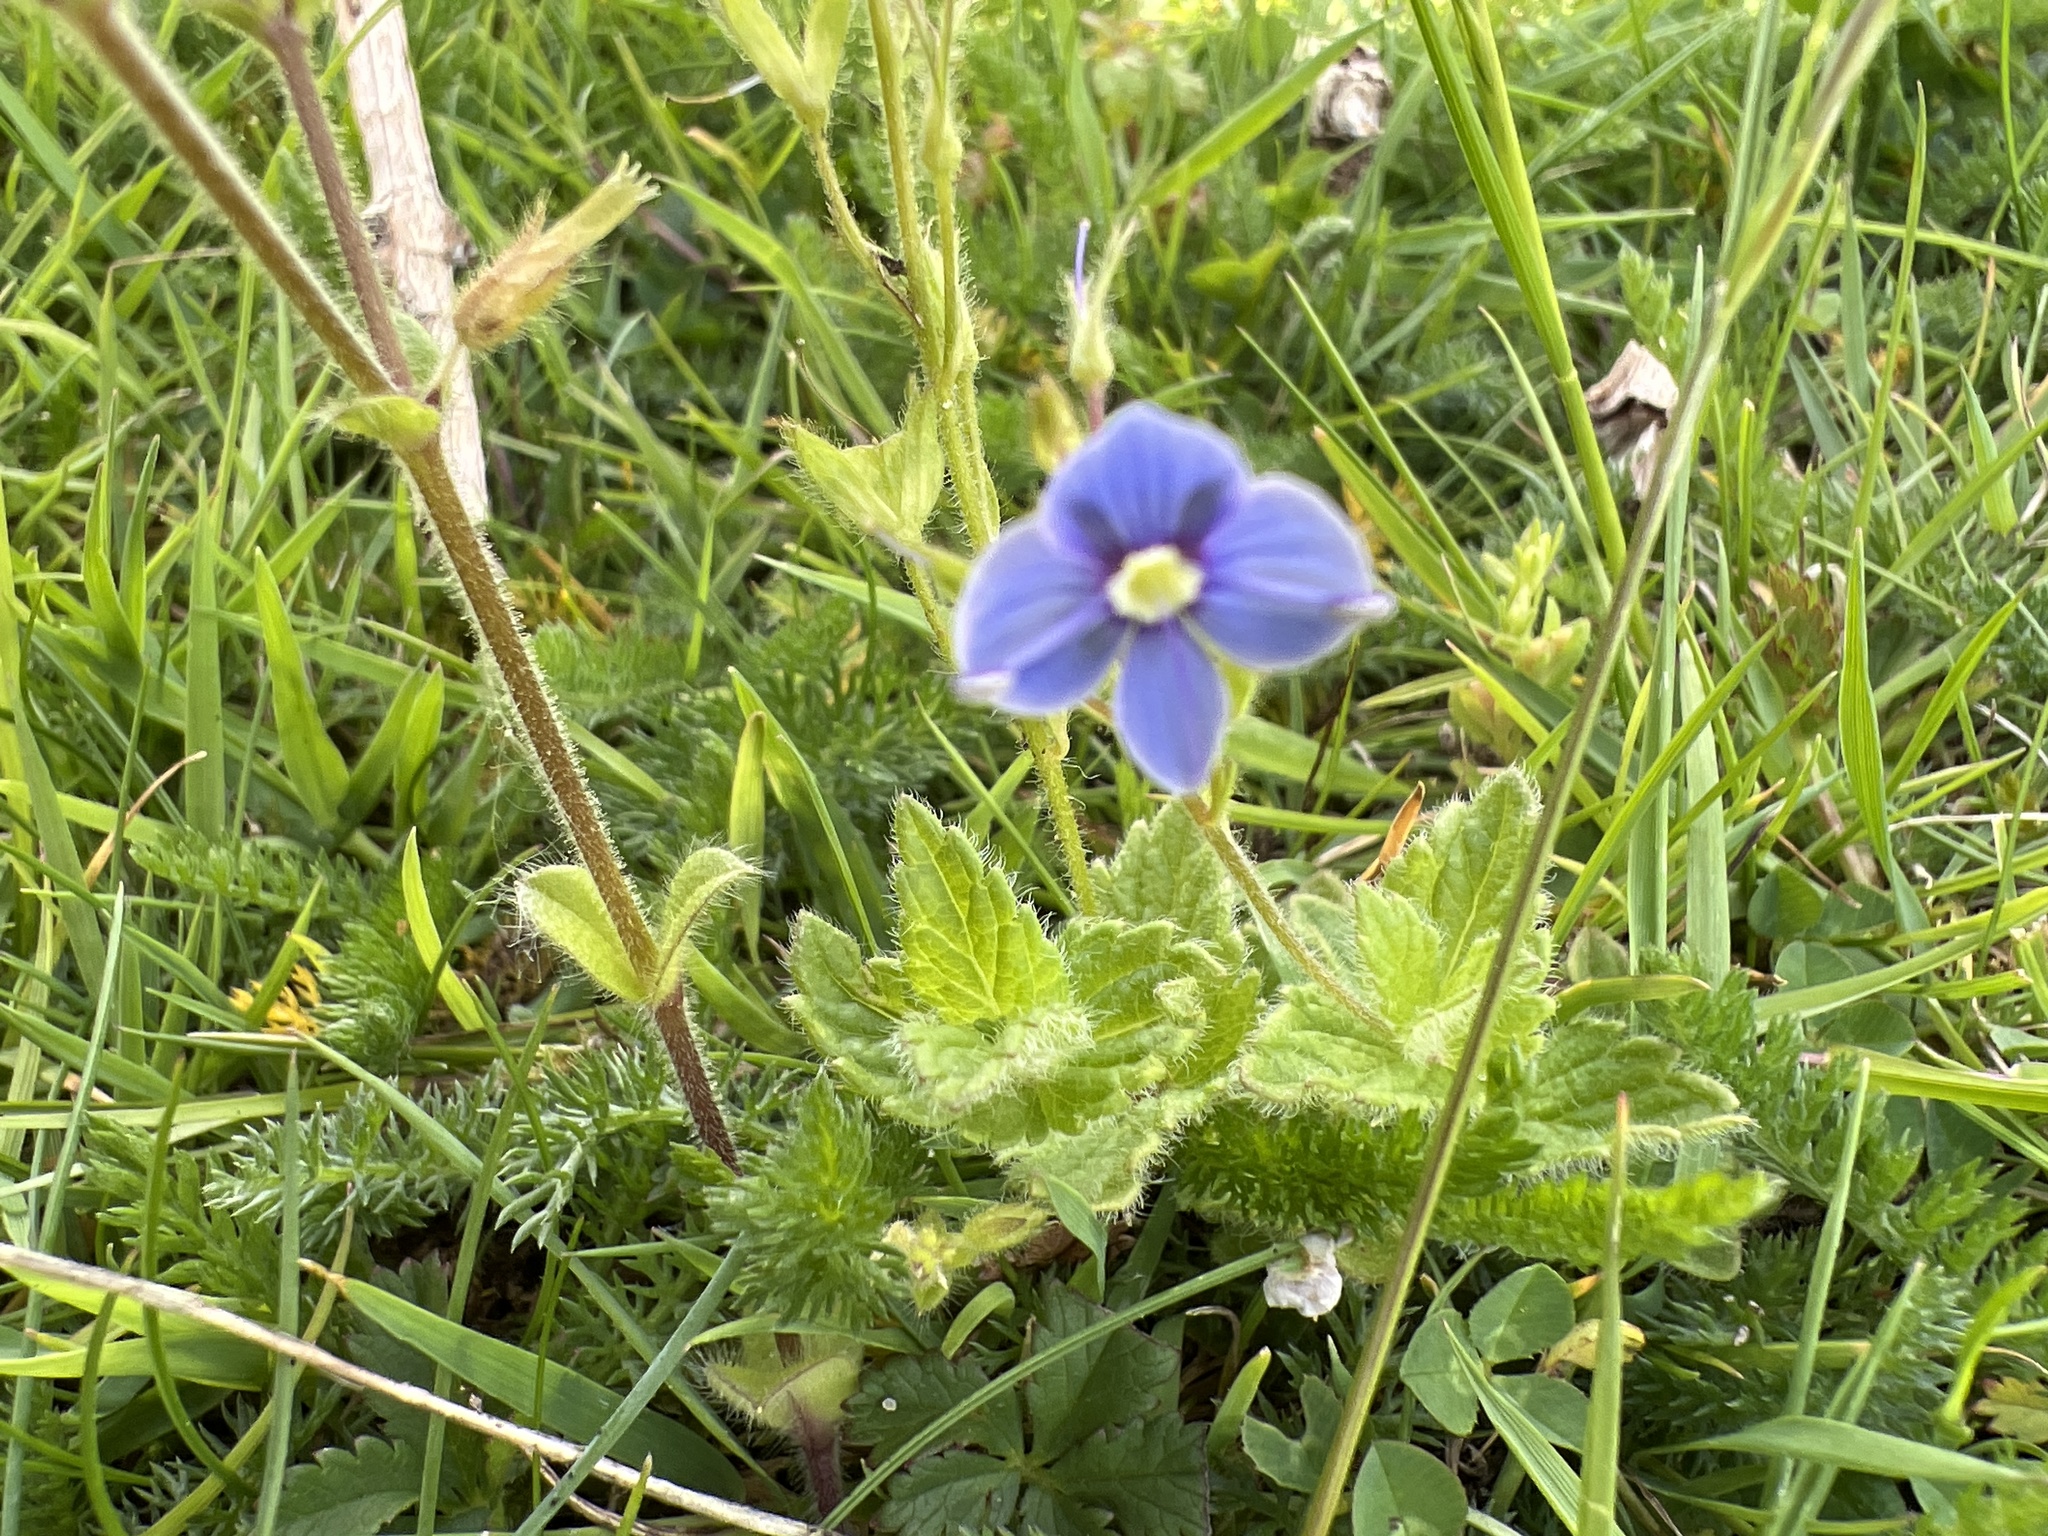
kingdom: Plantae
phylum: Tracheophyta
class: Magnoliopsida
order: Lamiales
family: Plantaginaceae
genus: Veronica
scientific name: Veronica chamaedrys
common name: Germander speedwell
